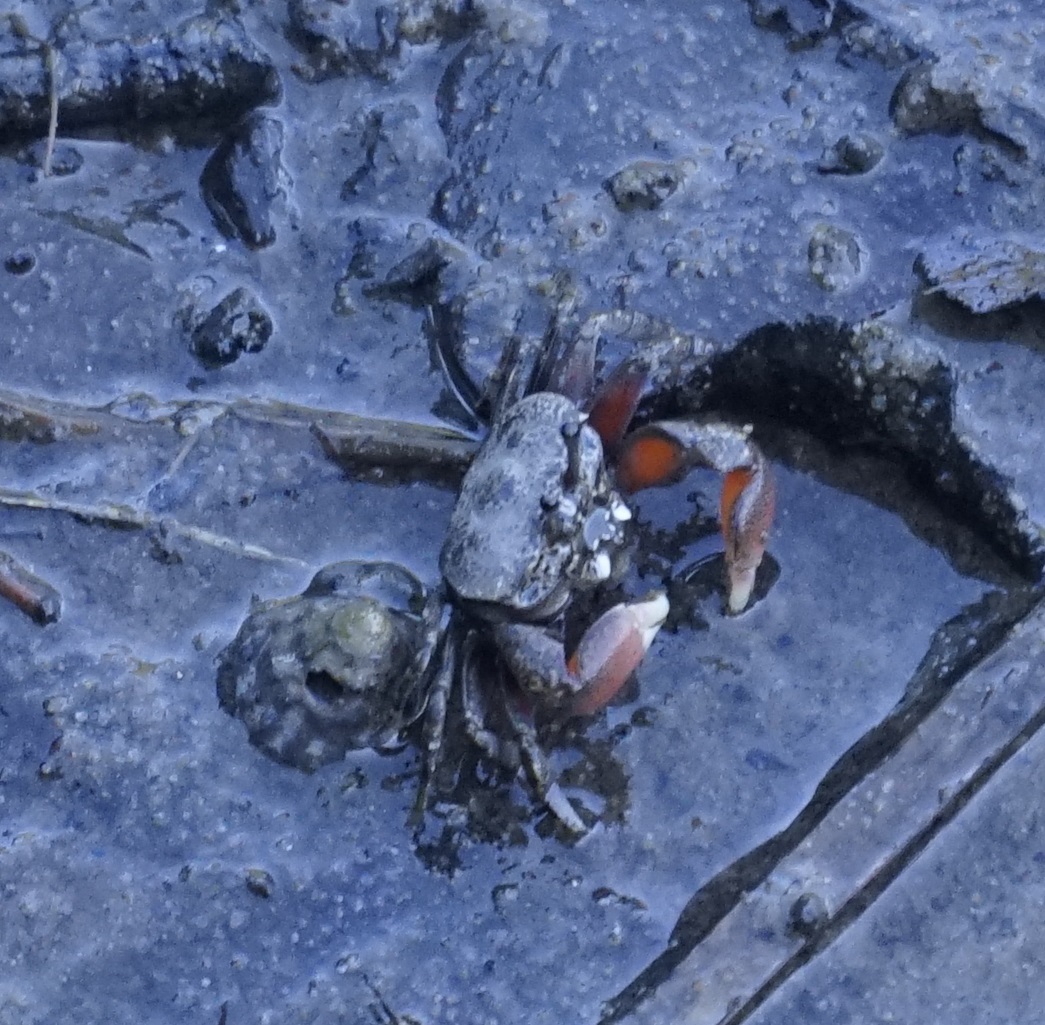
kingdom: Animalia
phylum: Arthropoda
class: Malacostraca
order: Decapoda
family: Heloeciidae
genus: Heloecius
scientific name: Heloecius cordiformis
